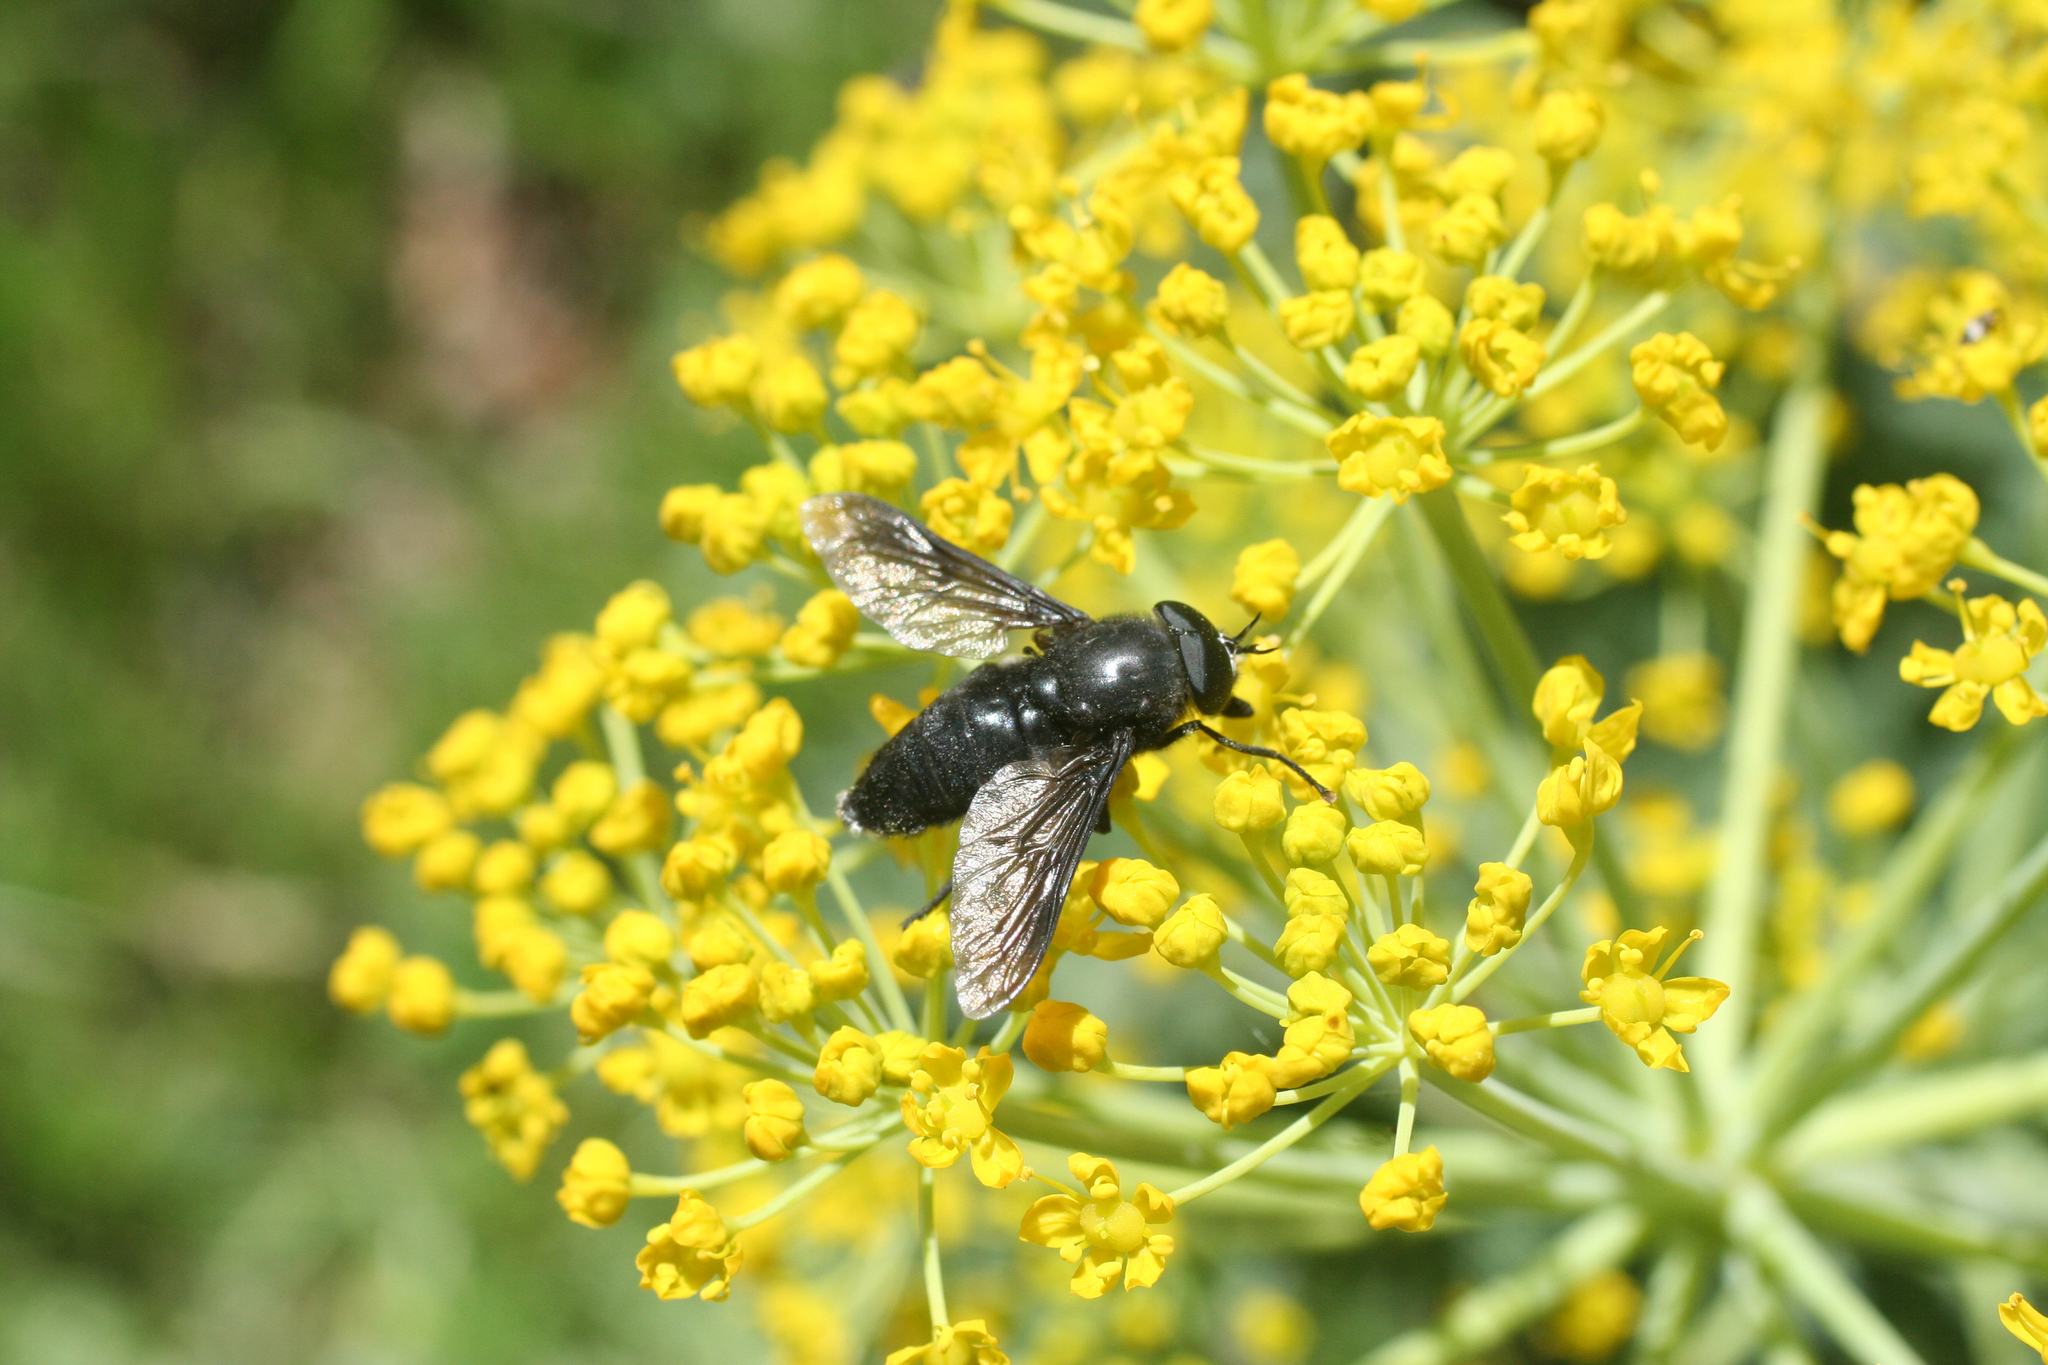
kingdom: Plantae
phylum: Tracheophyta
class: Magnoliopsida
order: Apiales
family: Apiaceae
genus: Thapsia
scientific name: Thapsia transtagana
